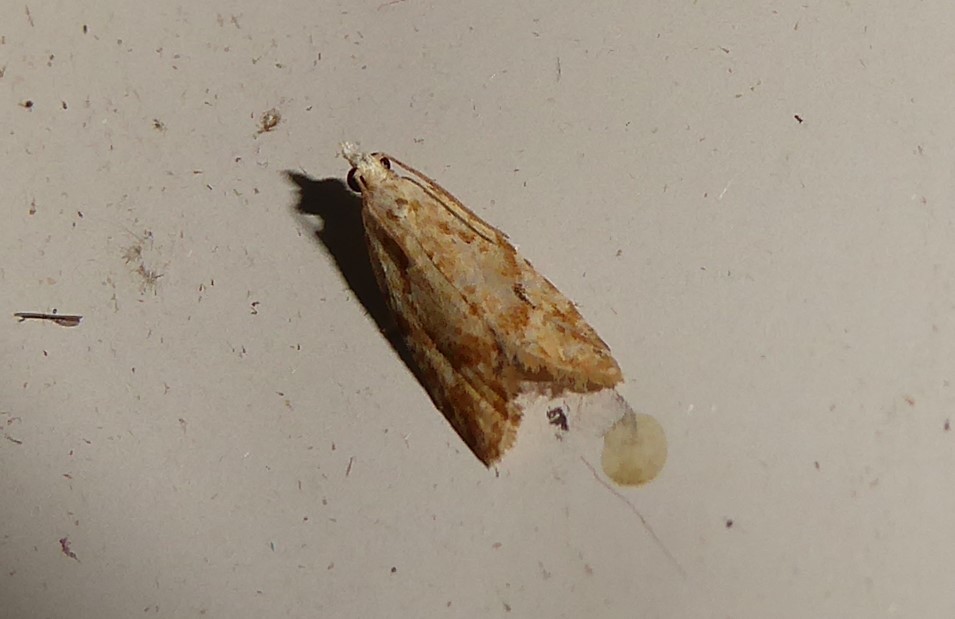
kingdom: Animalia
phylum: Arthropoda
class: Insecta
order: Lepidoptera
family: Tortricidae
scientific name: Tortricidae
